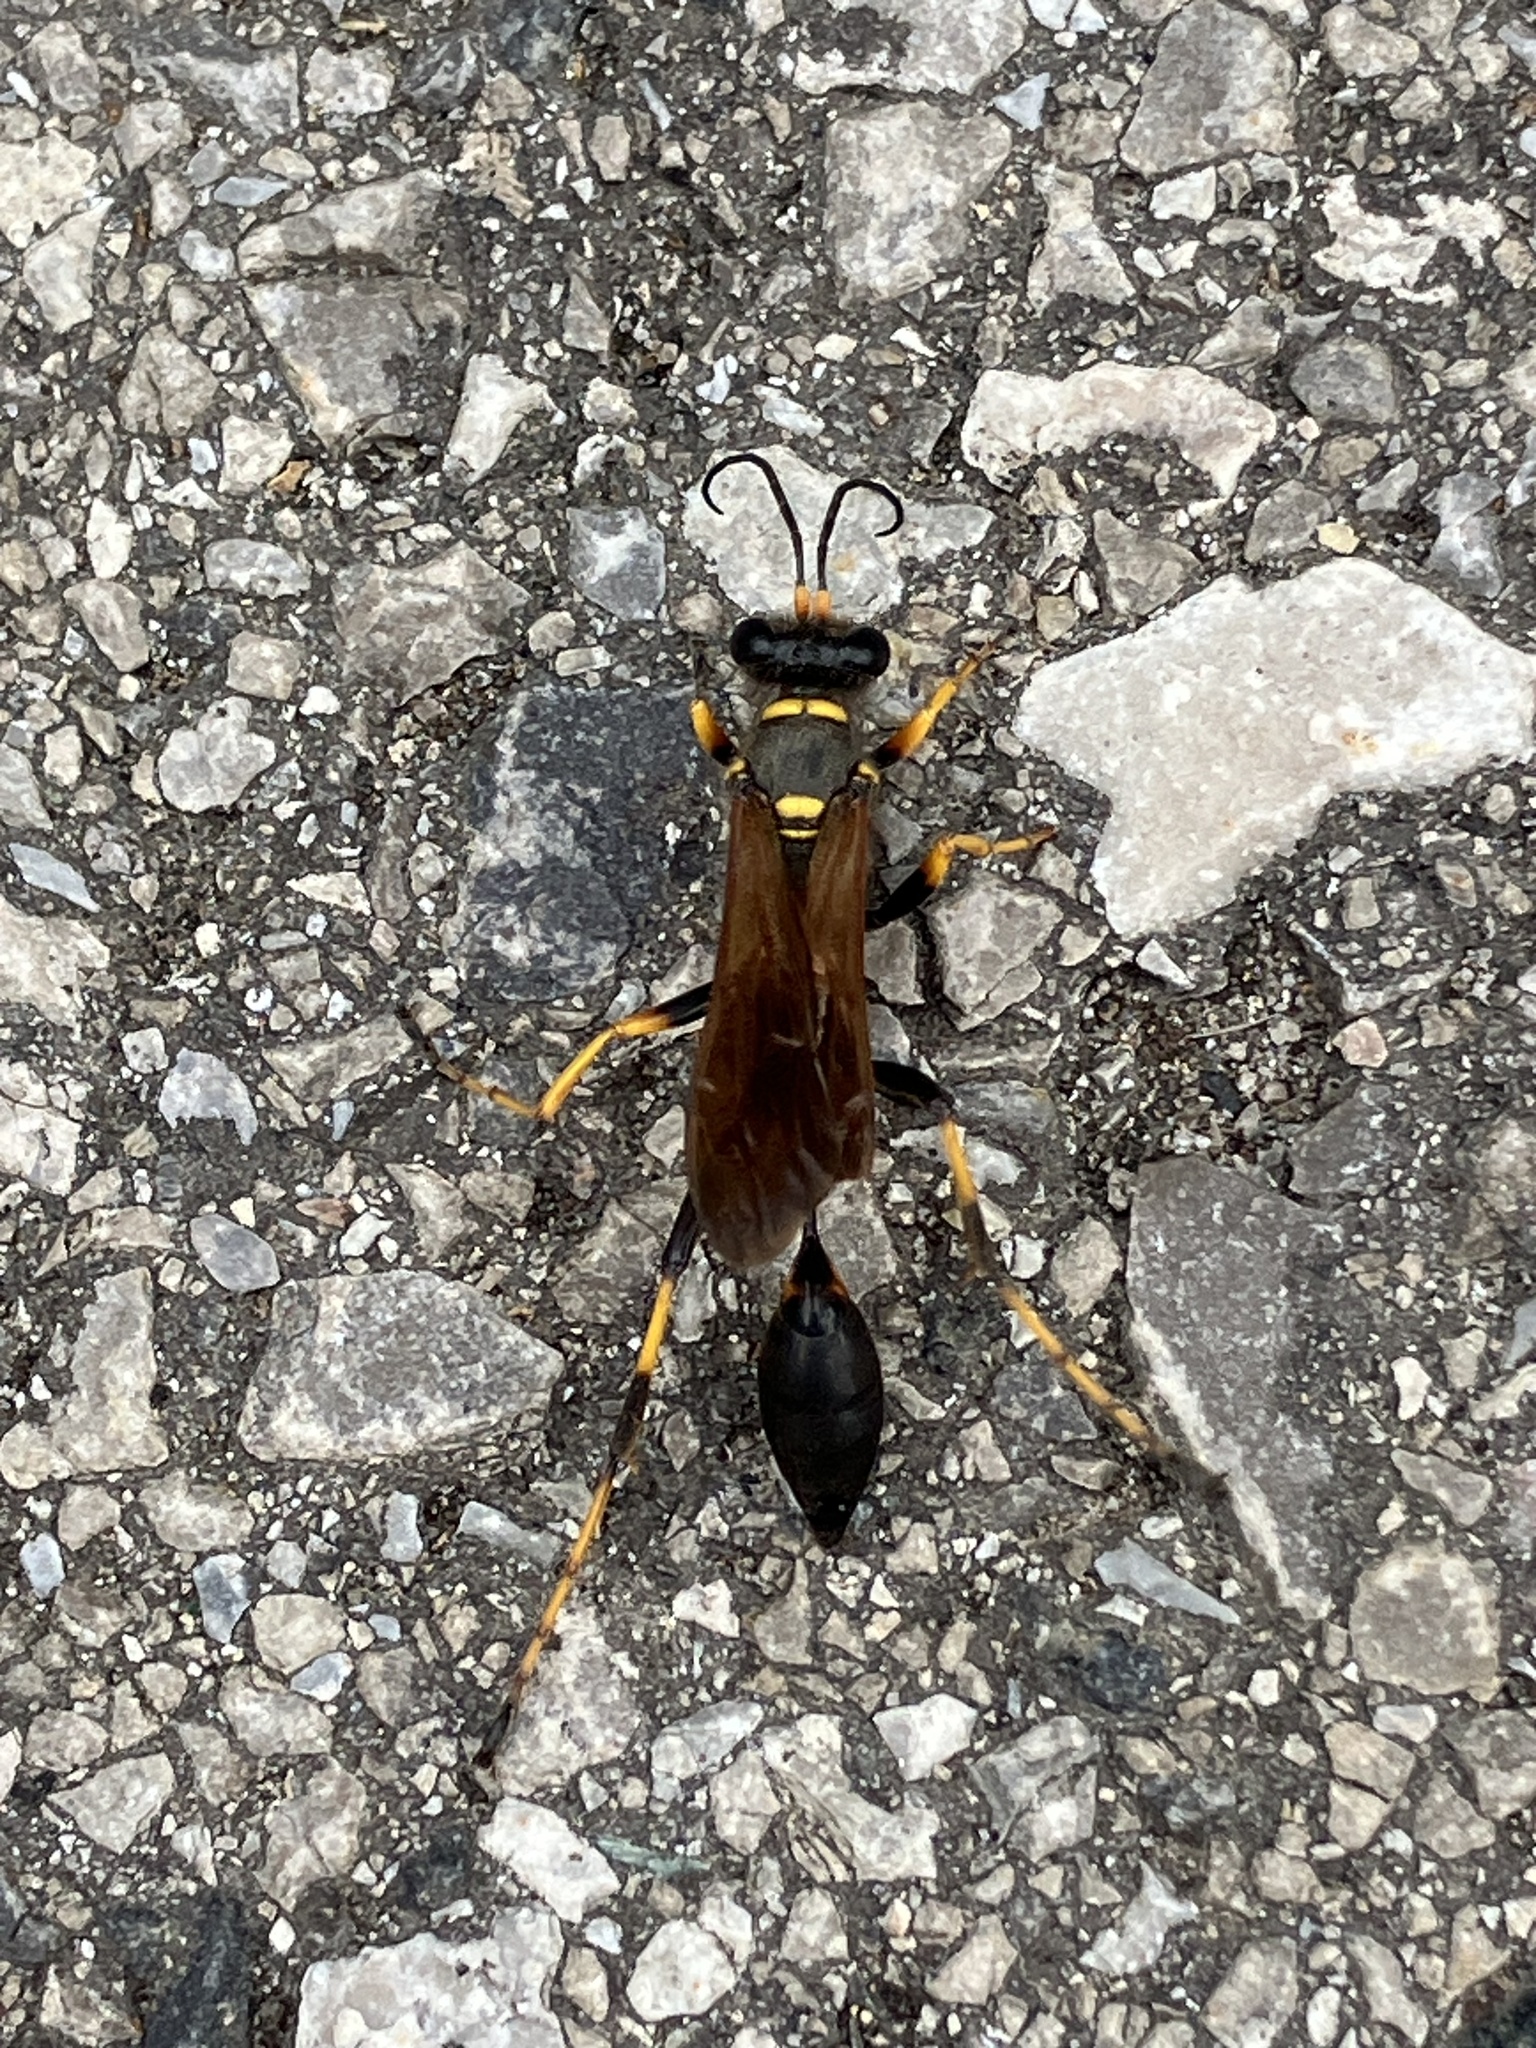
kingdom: Animalia
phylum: Arthropoda
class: Insecta
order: Hymenoptera
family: Sphecidae
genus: Sceliphron
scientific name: Sceliphron caementarium
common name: Mud dauber
